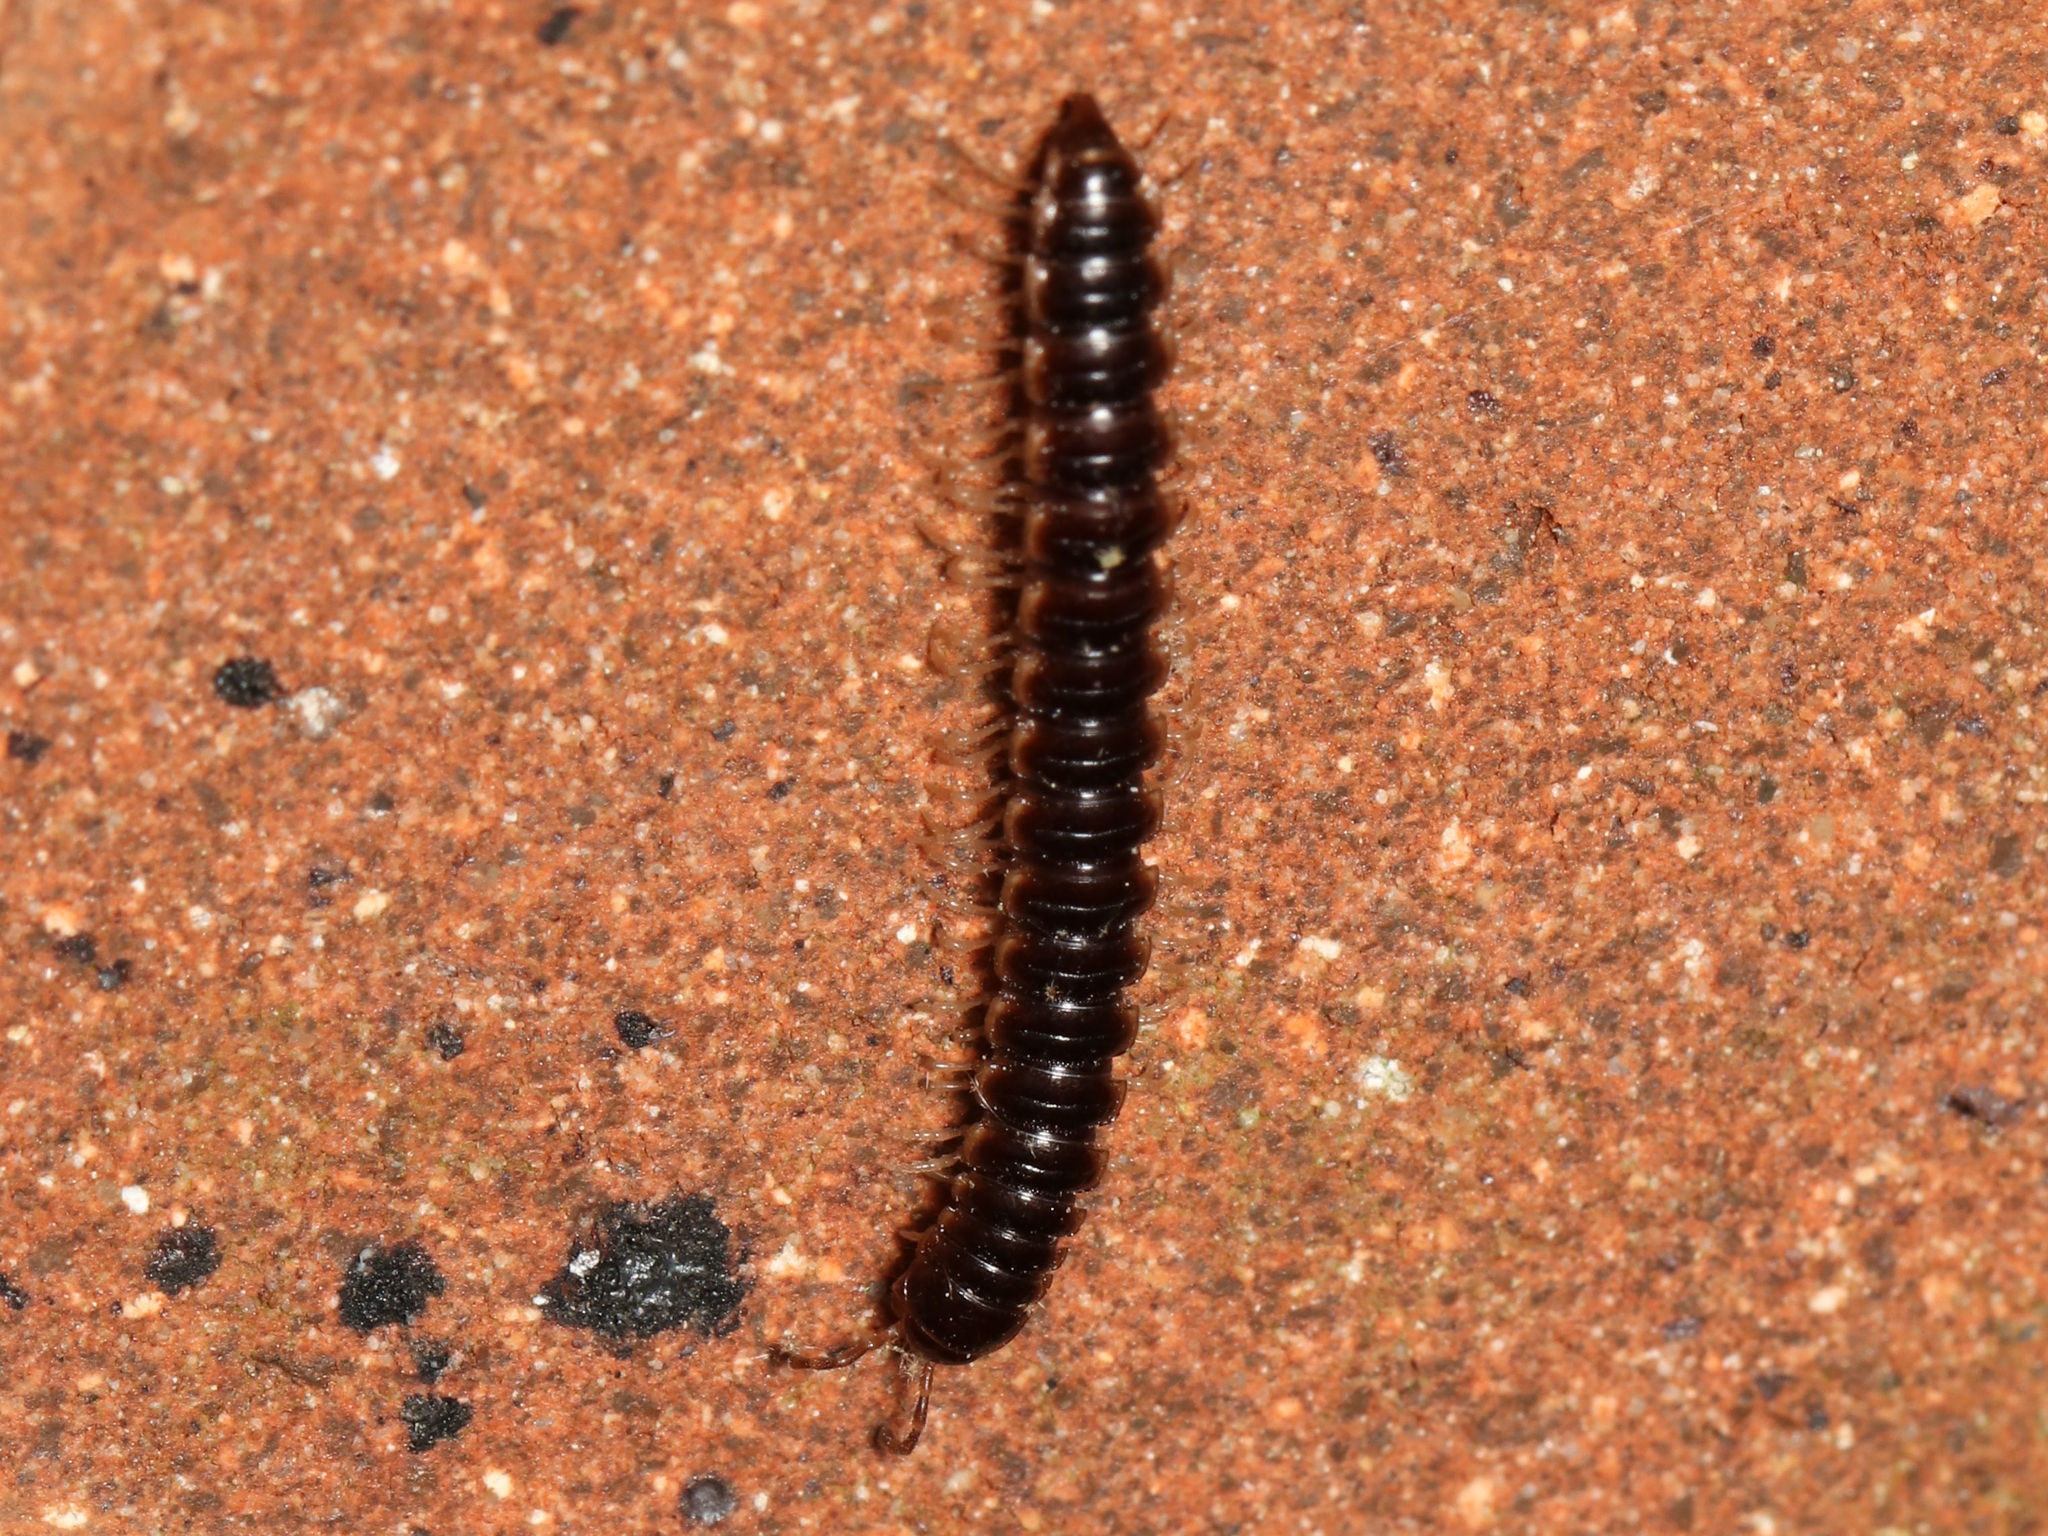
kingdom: Animalia
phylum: Arthropoda
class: Diplopoda
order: Polydesmida
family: Paradoxosomatidae
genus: Oxidus
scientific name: Oxidus gracilis
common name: Greenhouse millipede
